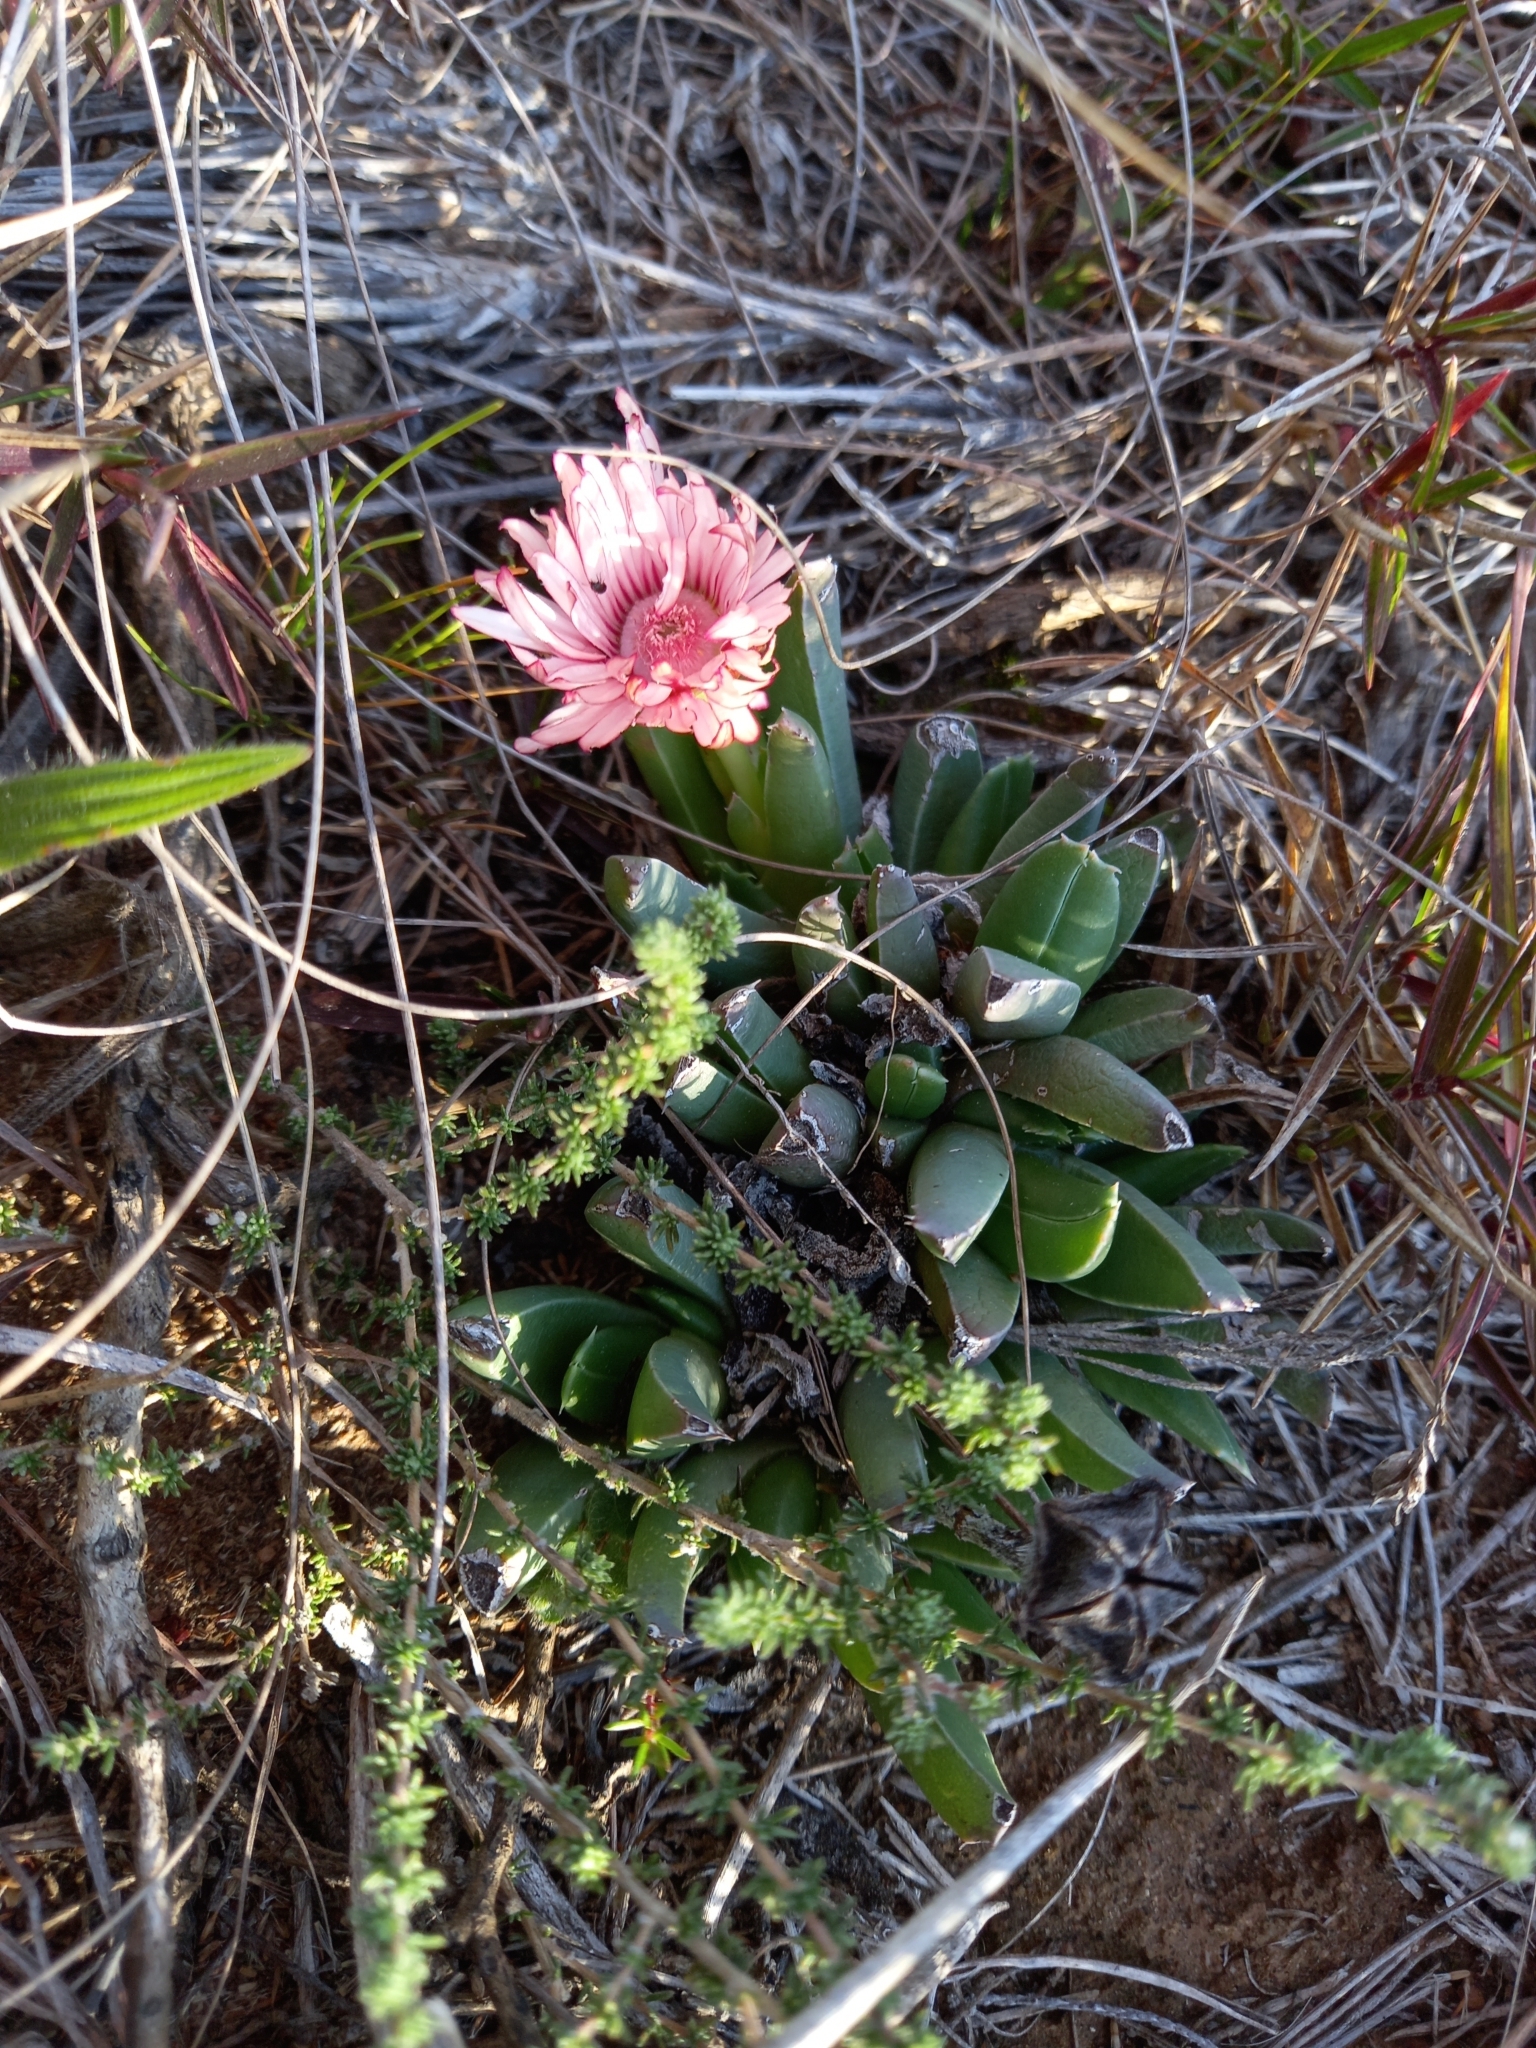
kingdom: Plantae
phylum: Tracheophyta
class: Magnoliopsida
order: Caryophyllales
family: Aizoaceae
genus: Acrodon
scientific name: Acrodon bellidiflorus
